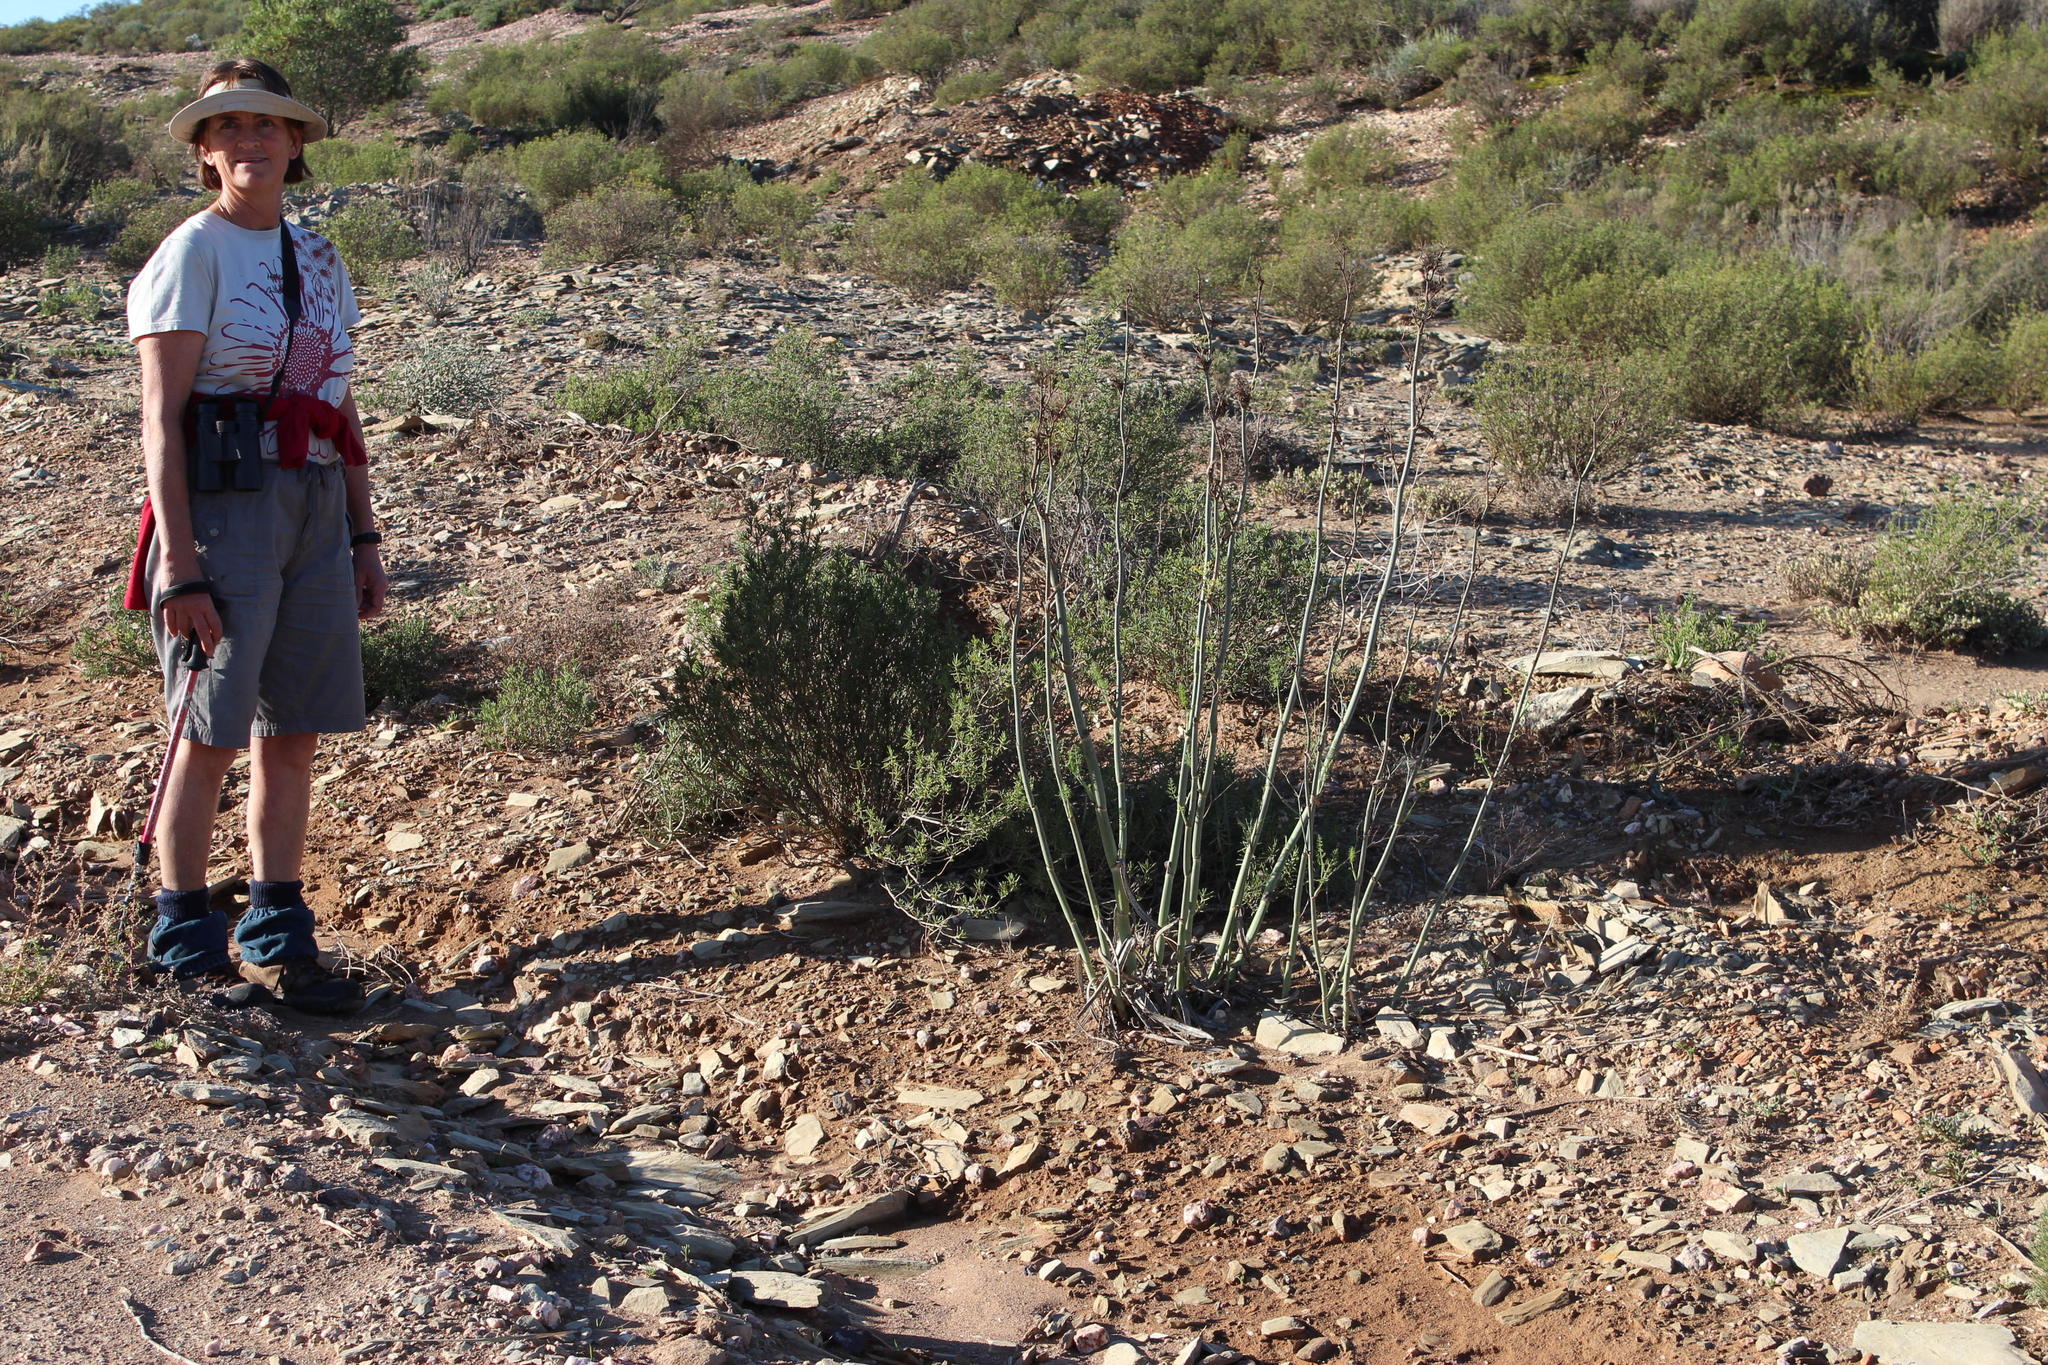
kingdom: Plantae
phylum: Tracheophyta
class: Magnoliopsida
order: Apiales
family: Apiaceae
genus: Foeniculum
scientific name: Foeniculum vulgare
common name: Fennel
